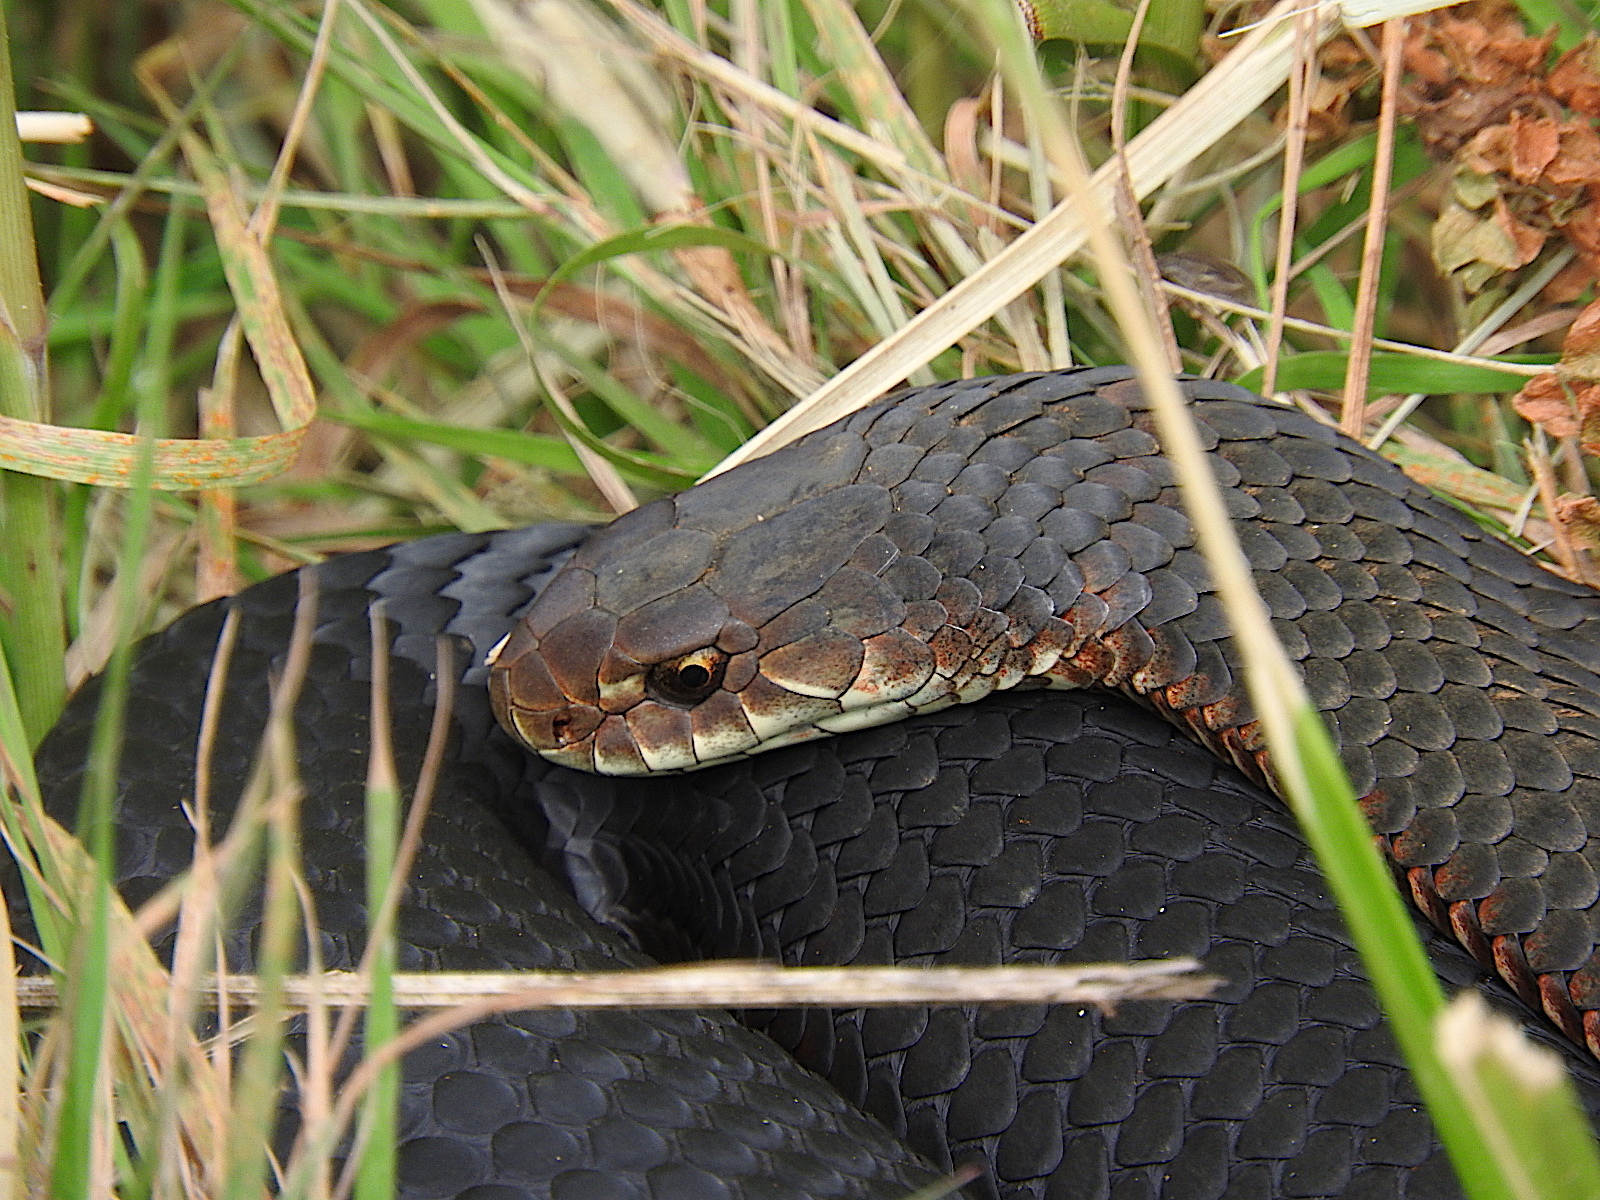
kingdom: Animalia
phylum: Chordata
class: Squamata
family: Elapidae
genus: Austrelaps
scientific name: Austrelaps superbus
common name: Copperhead snake
